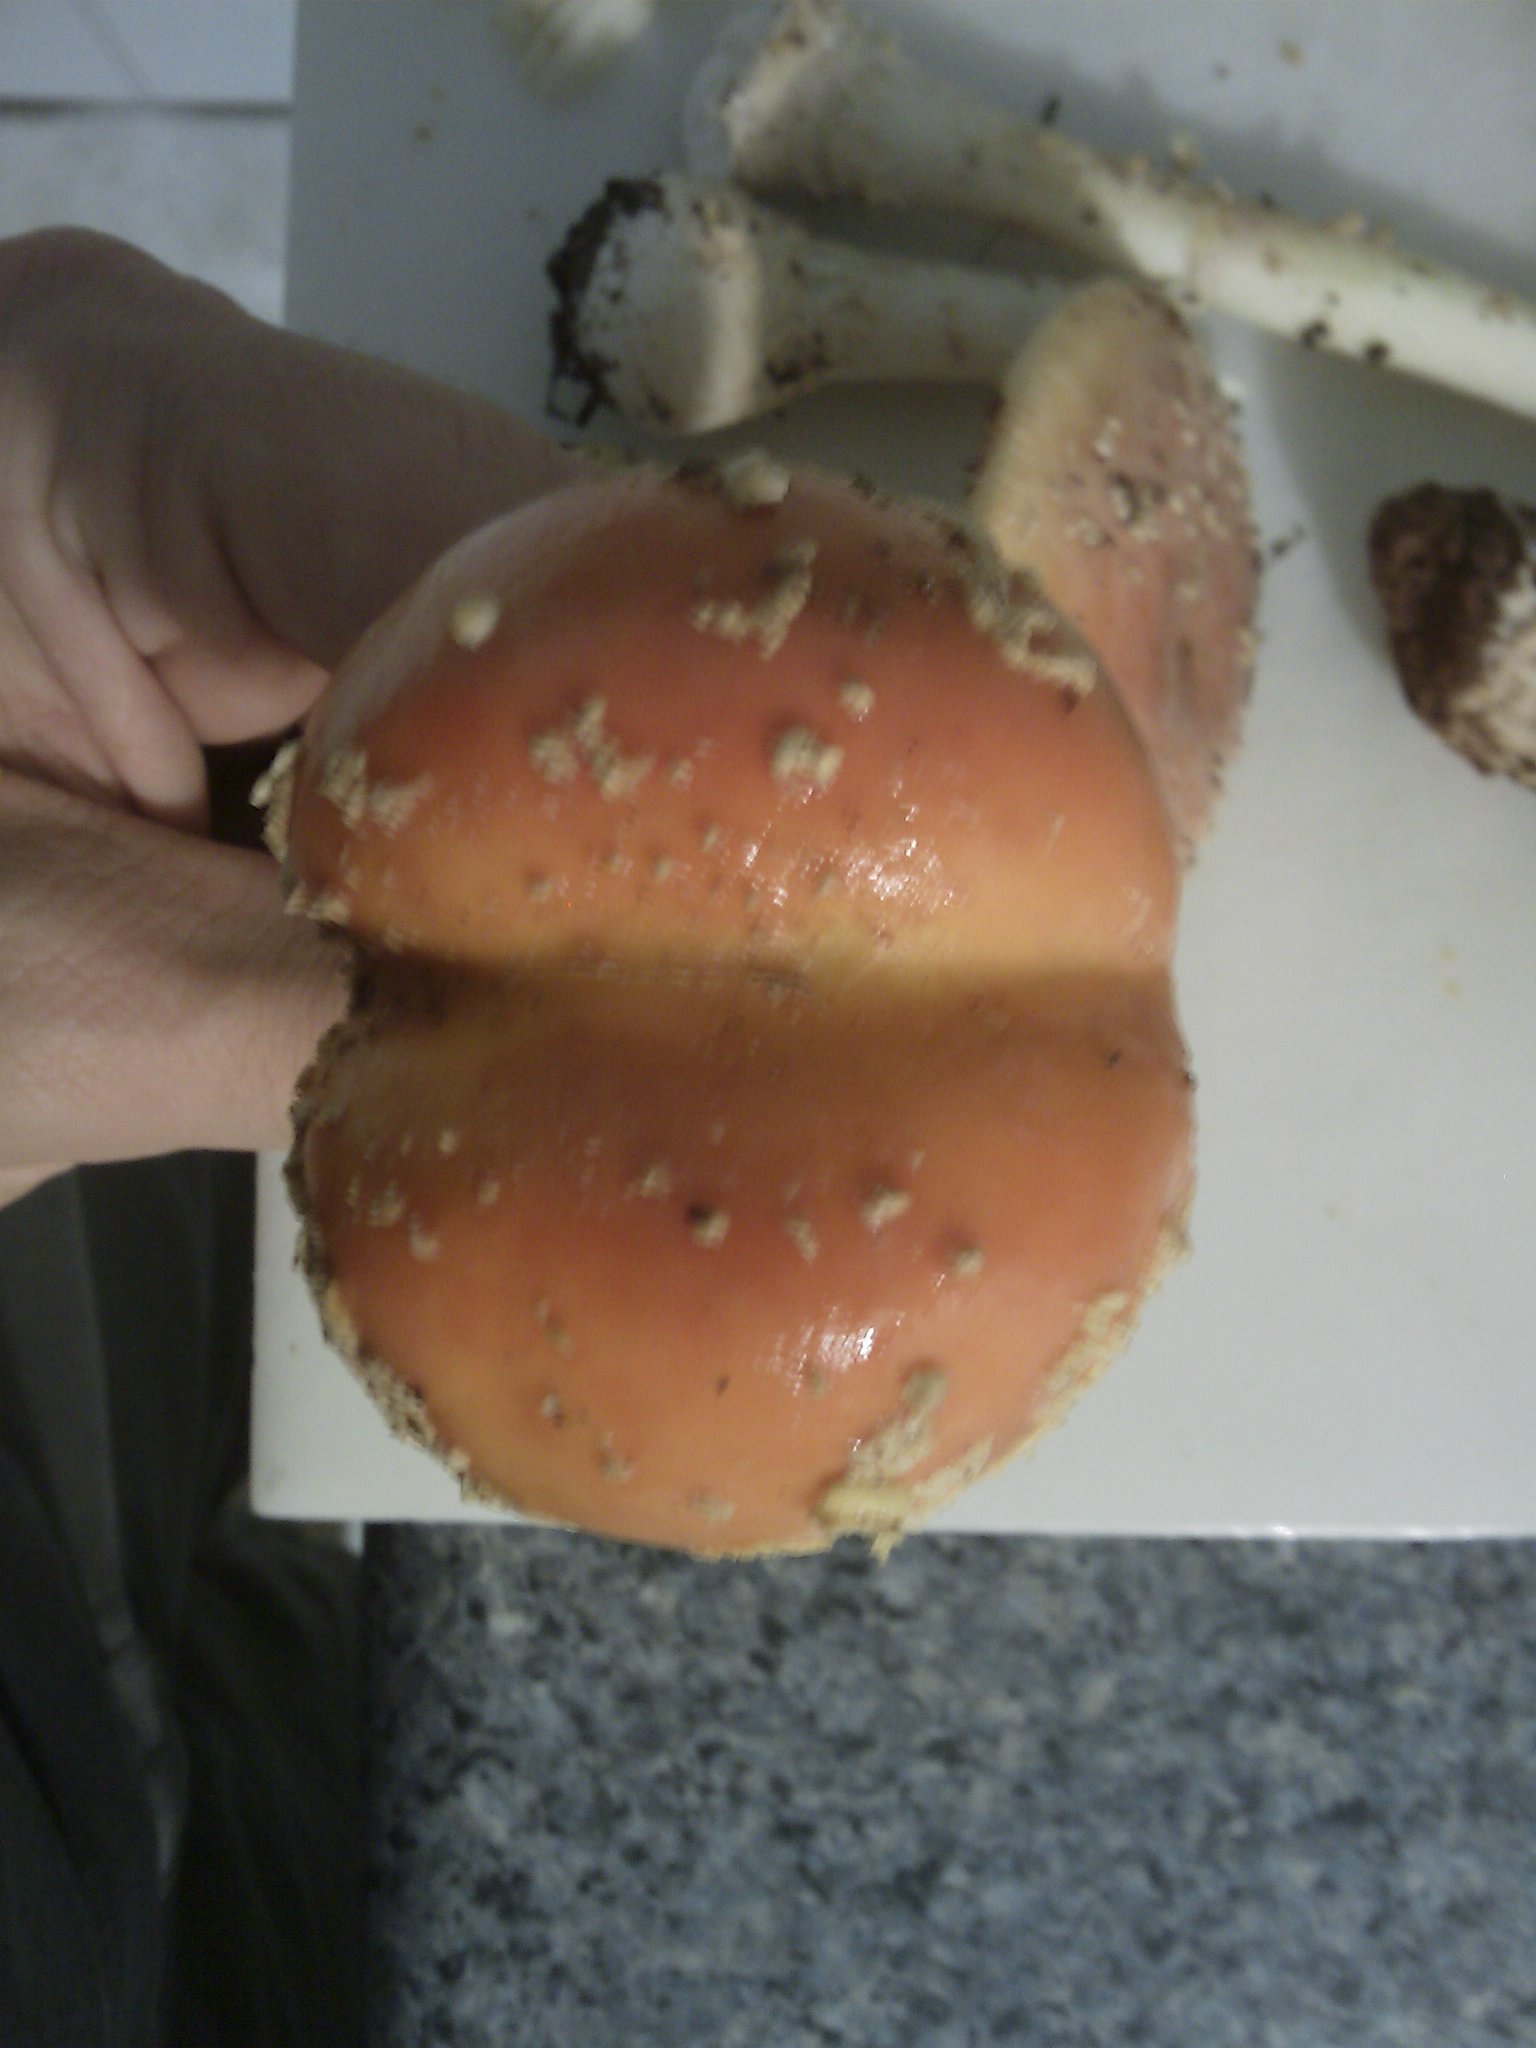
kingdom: Fungi
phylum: Basidiomycota
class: Agaricomycetes
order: Agaricales
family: Amanitaceae
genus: Amanita
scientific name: Amanita persicina
